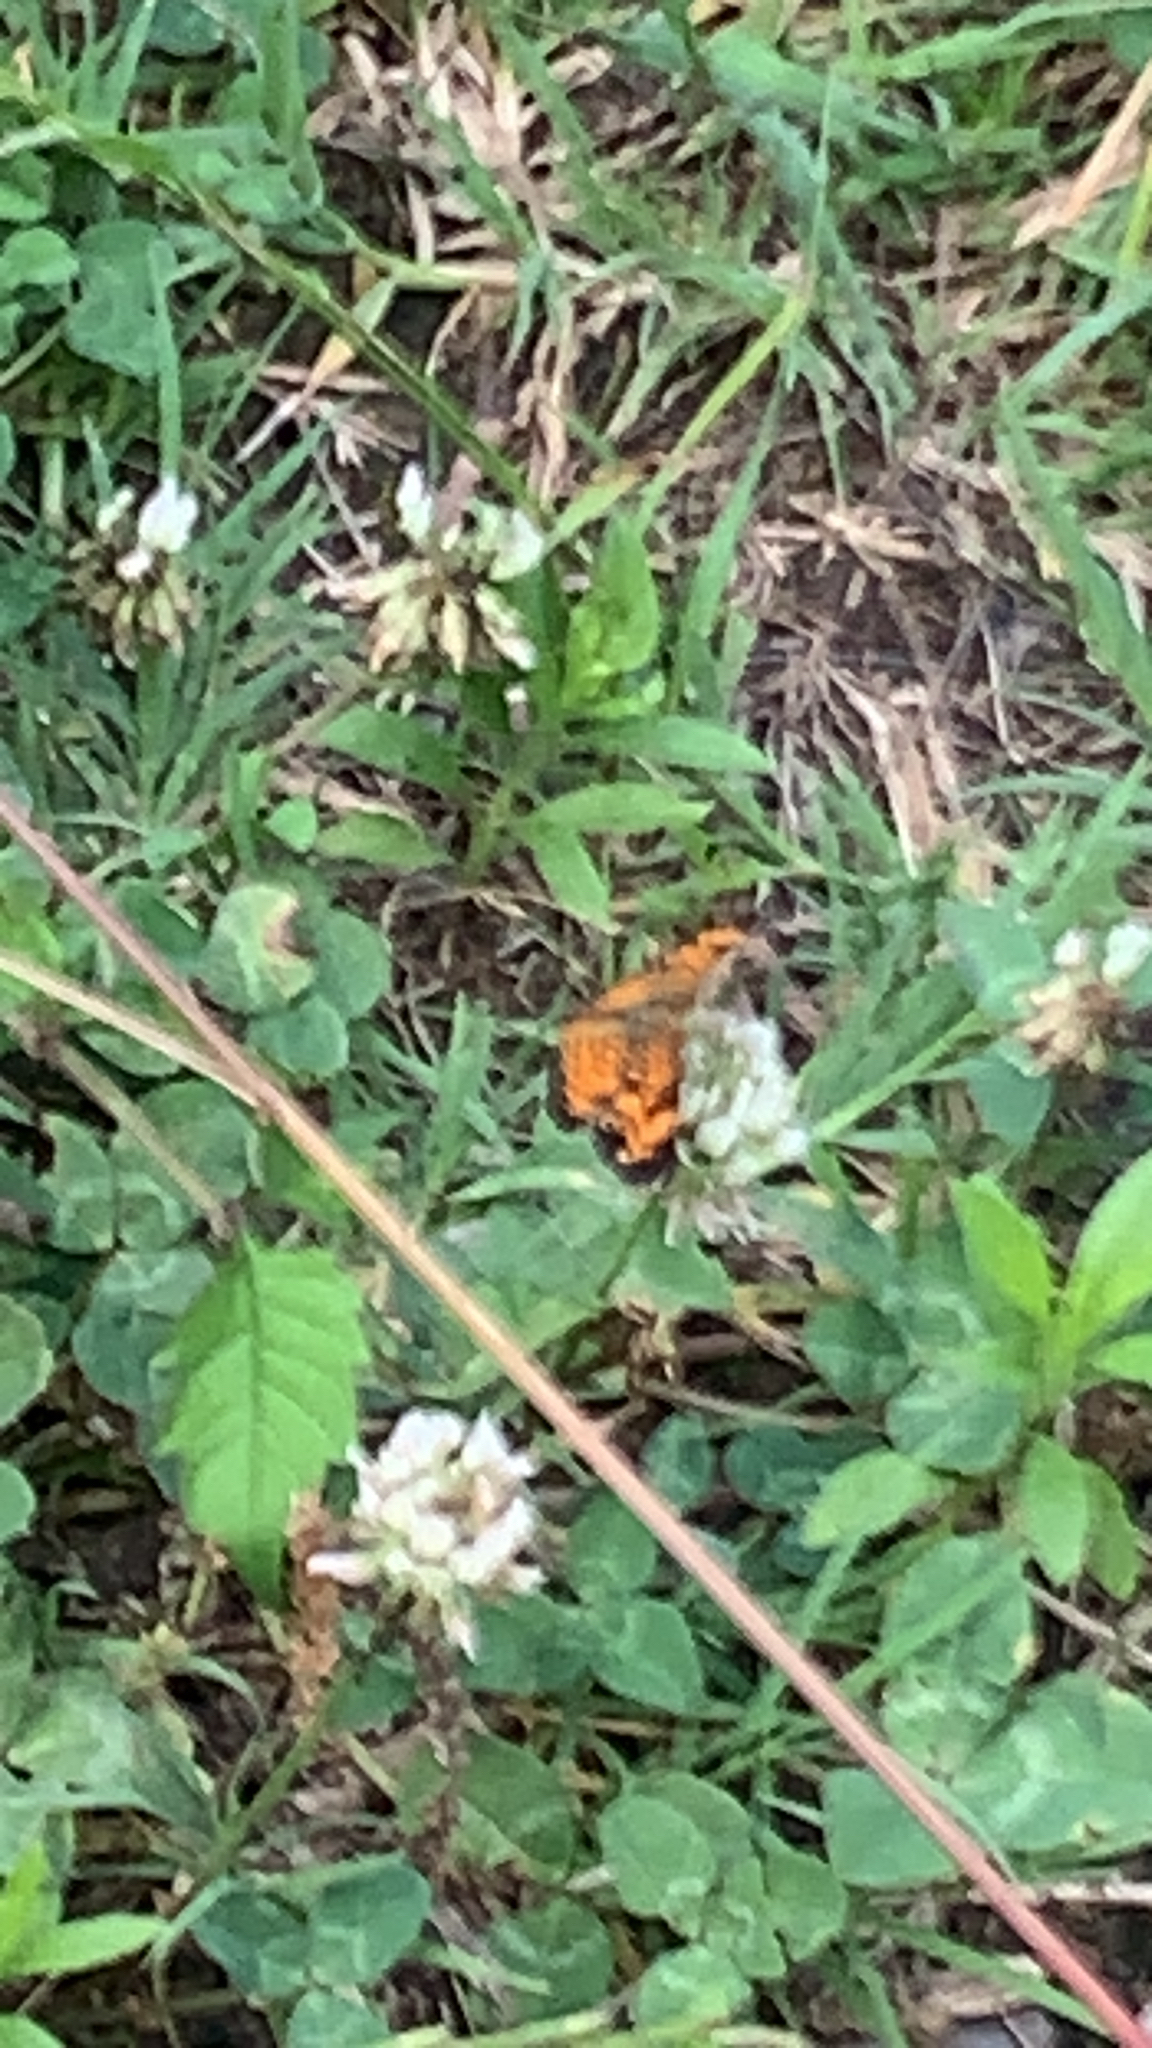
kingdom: Animalia
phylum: Arthropoda
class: Insecta
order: Lepidoptera
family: Nymphalidae
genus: Phyciodes
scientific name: Phyciodes tharos
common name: Pearl crescent
